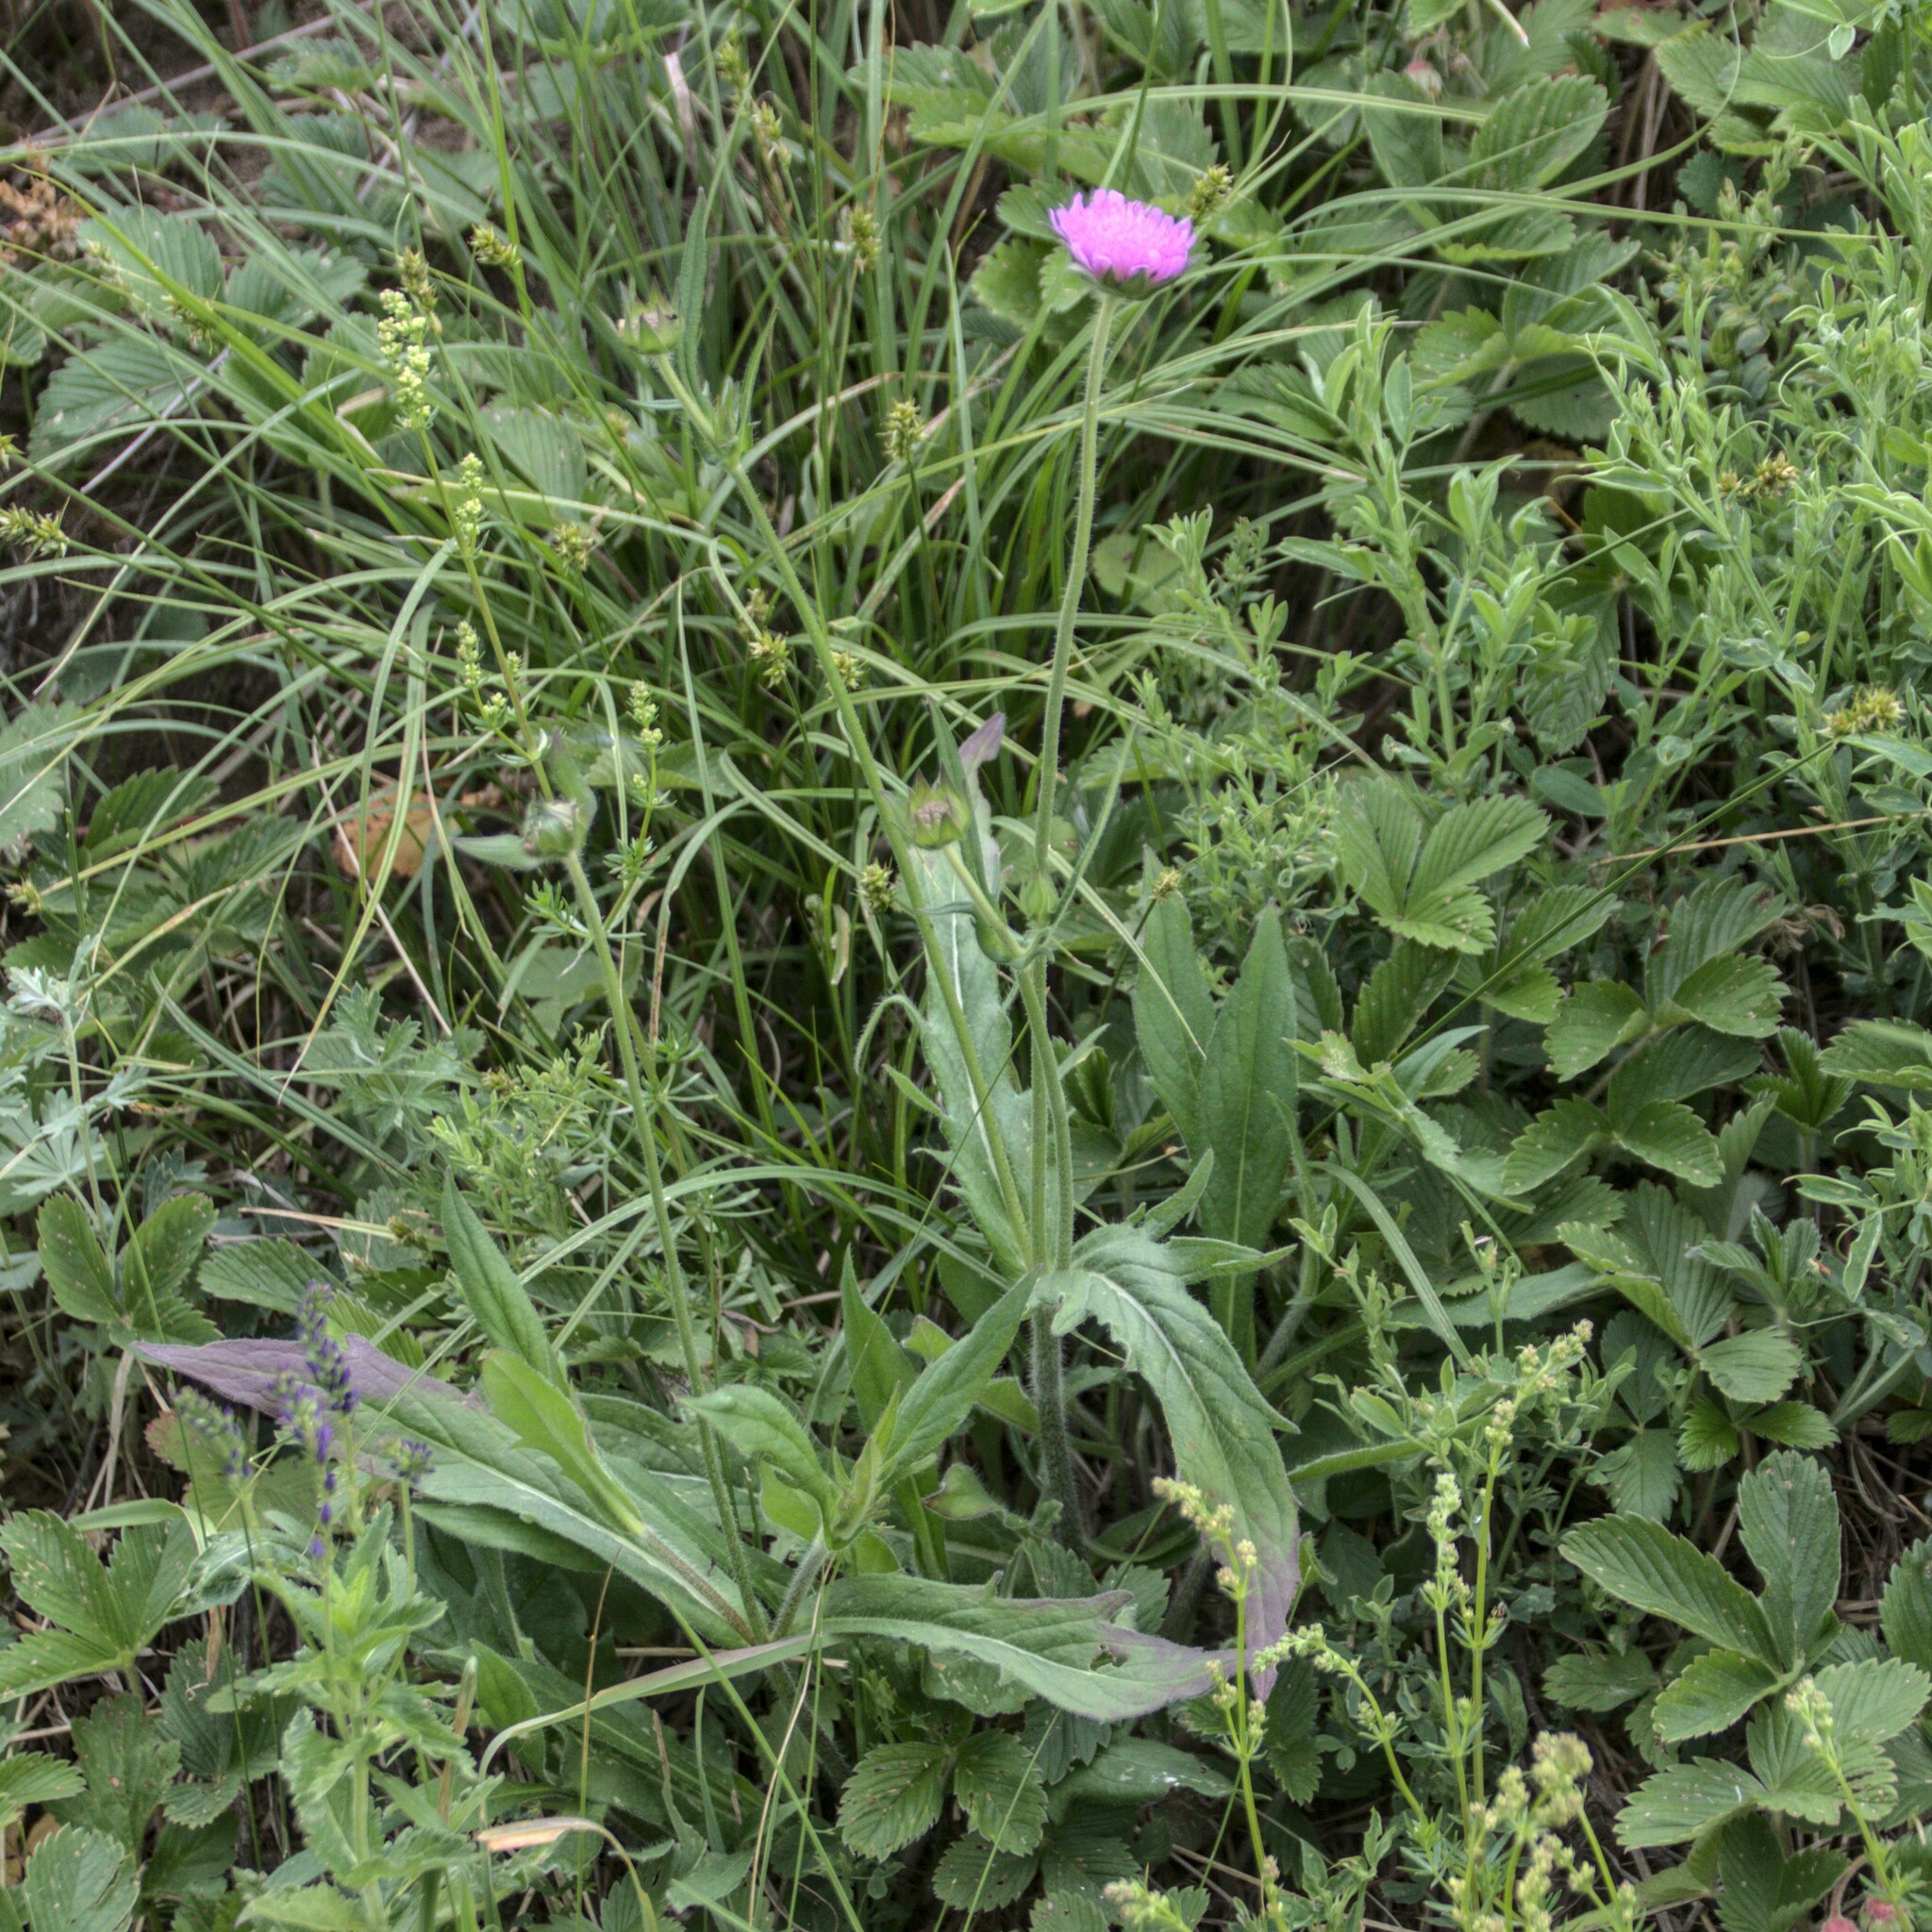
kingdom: Plantae
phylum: Tracheophyta
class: Magnoliopsida
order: Dipsacales
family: Caprifoliaceae
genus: Knautia
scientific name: Knautia arvensis
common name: Field scabiosa
